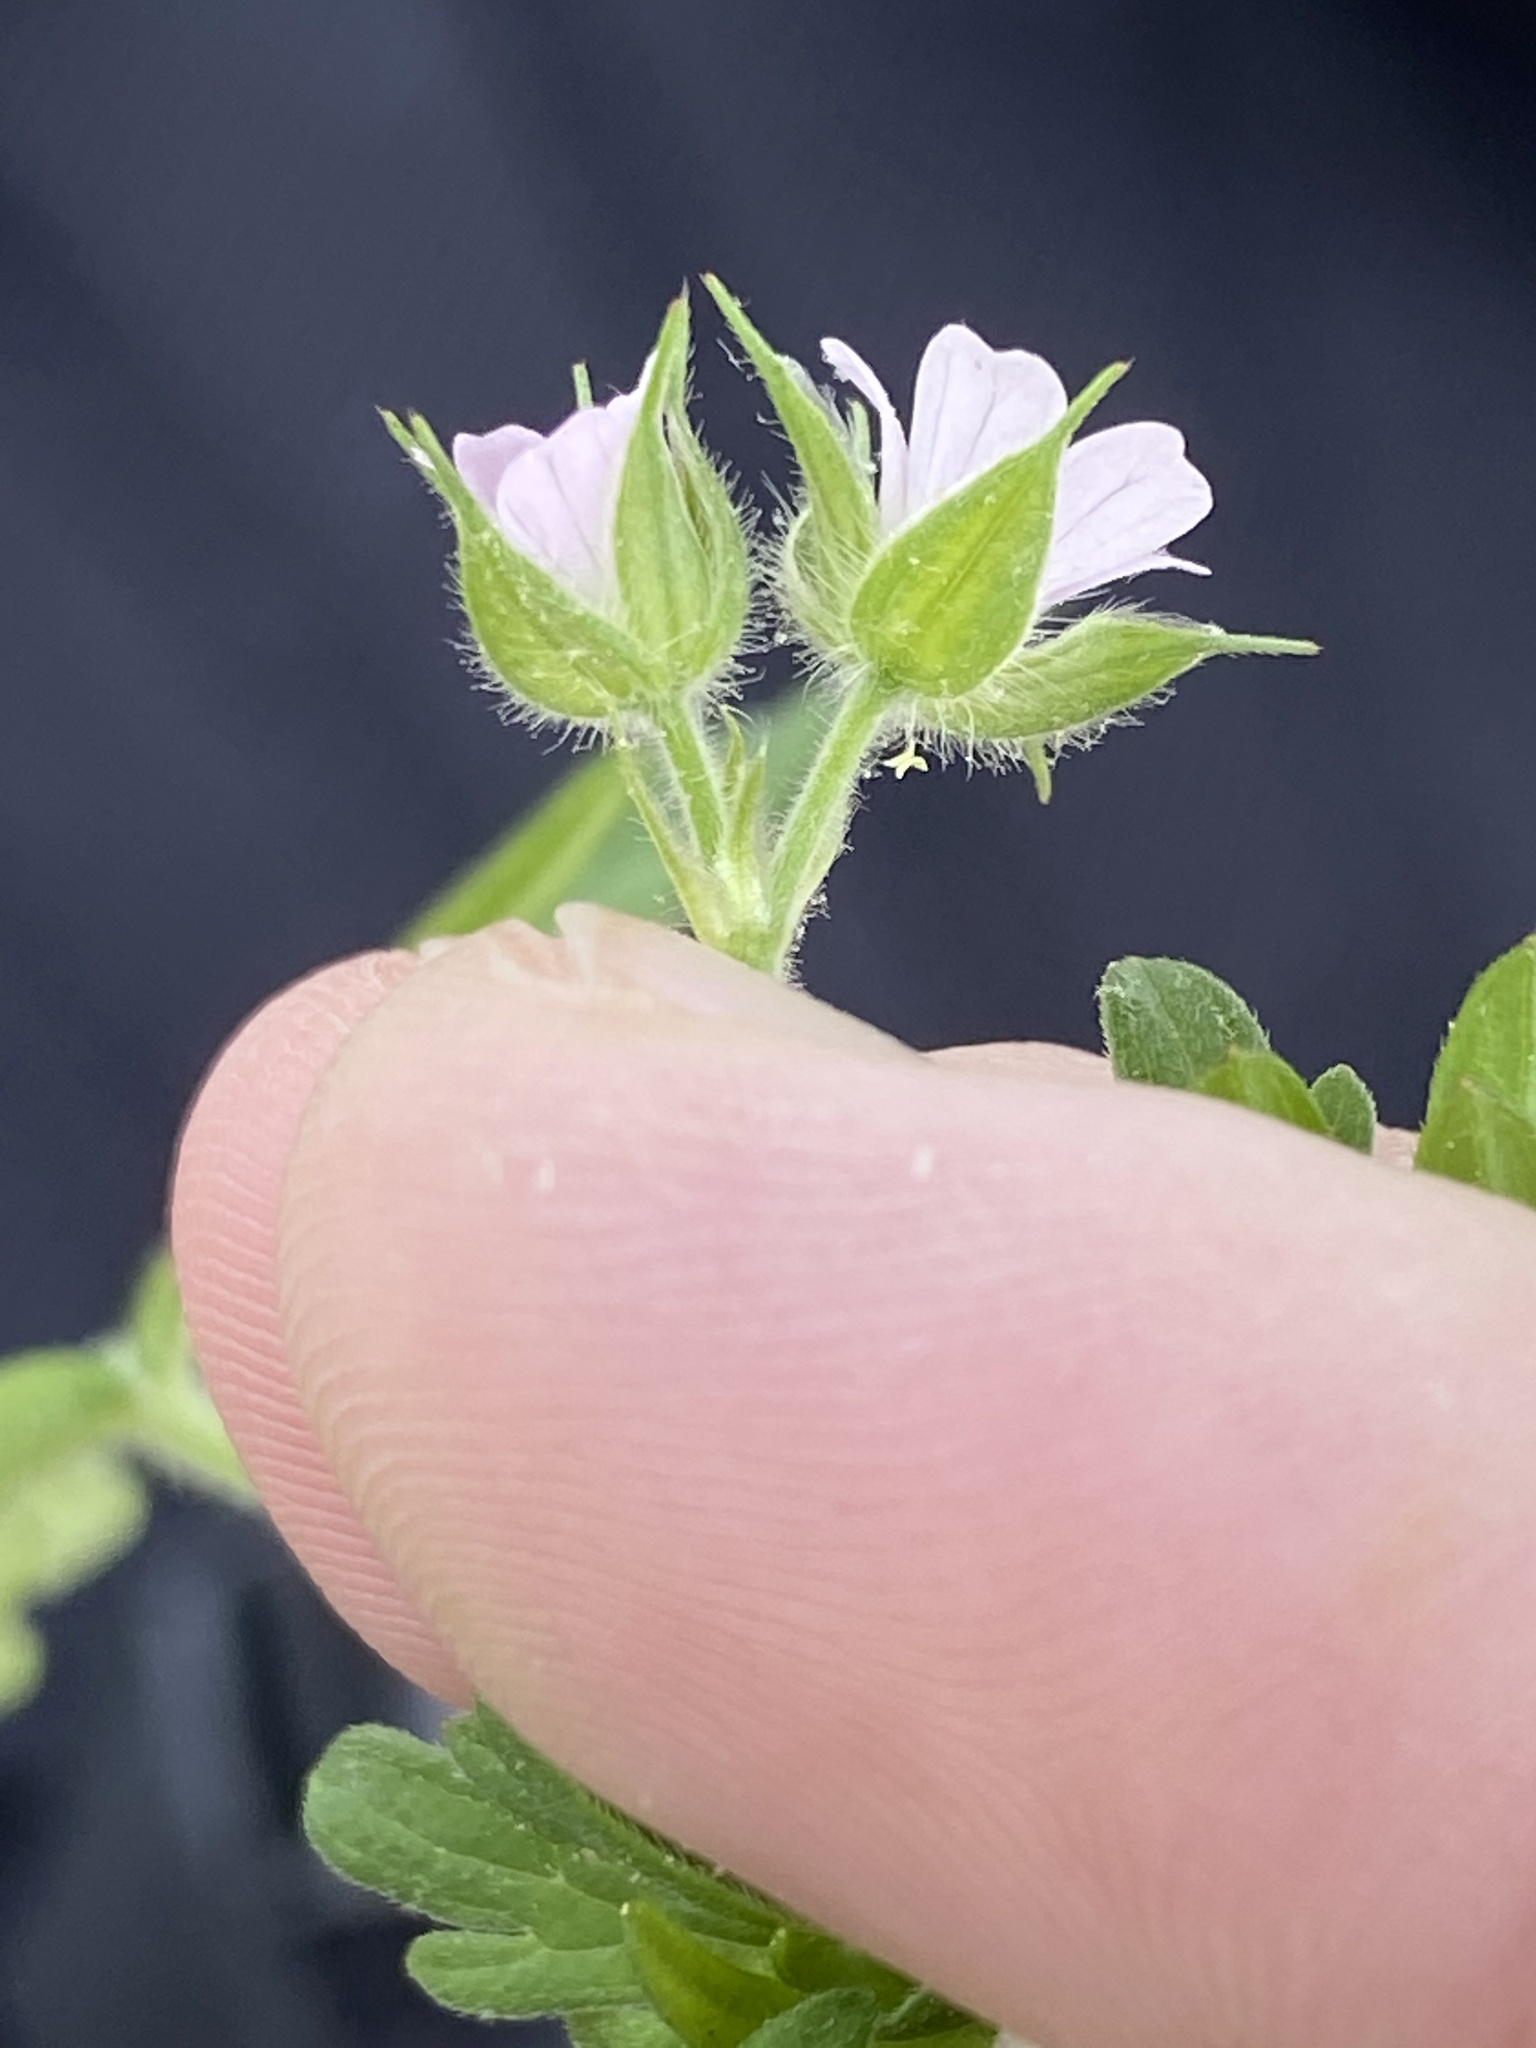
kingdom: Plantae
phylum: Tracheophyta
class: Magnoliopsida
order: Geraniales
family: Geraniaceae
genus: Geranium
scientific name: Geranium carolinianum
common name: Carolina crane's-bill
